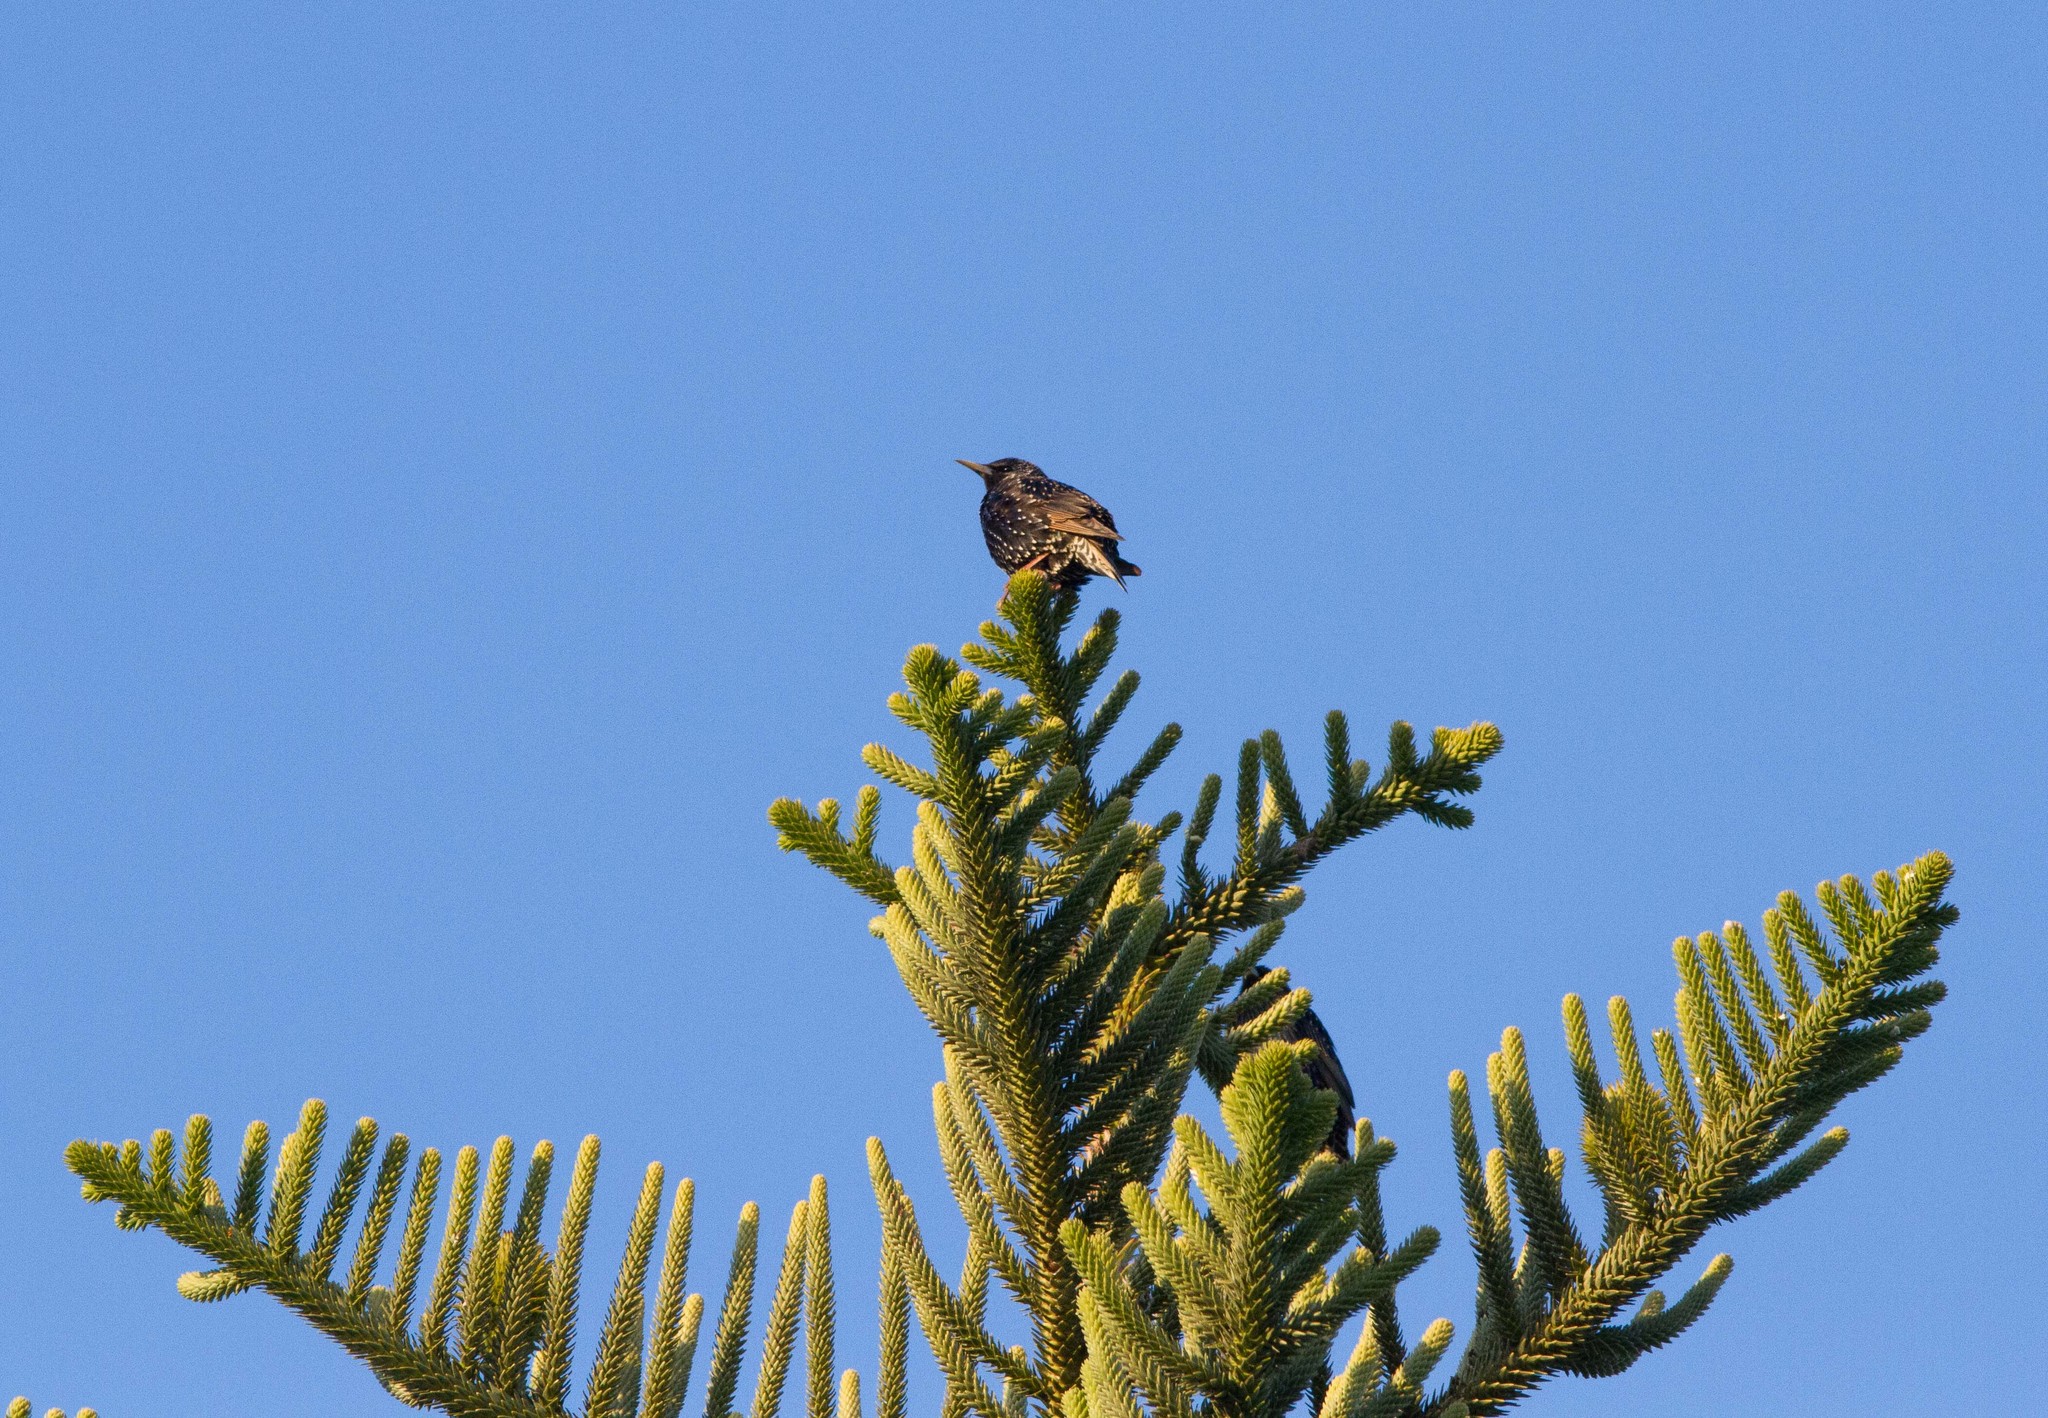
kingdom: Animalia
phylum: Chordata
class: Aves
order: Passeriformes
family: Sturnidae
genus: Sturnus
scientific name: Sturnus vulgaris
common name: Common starling
